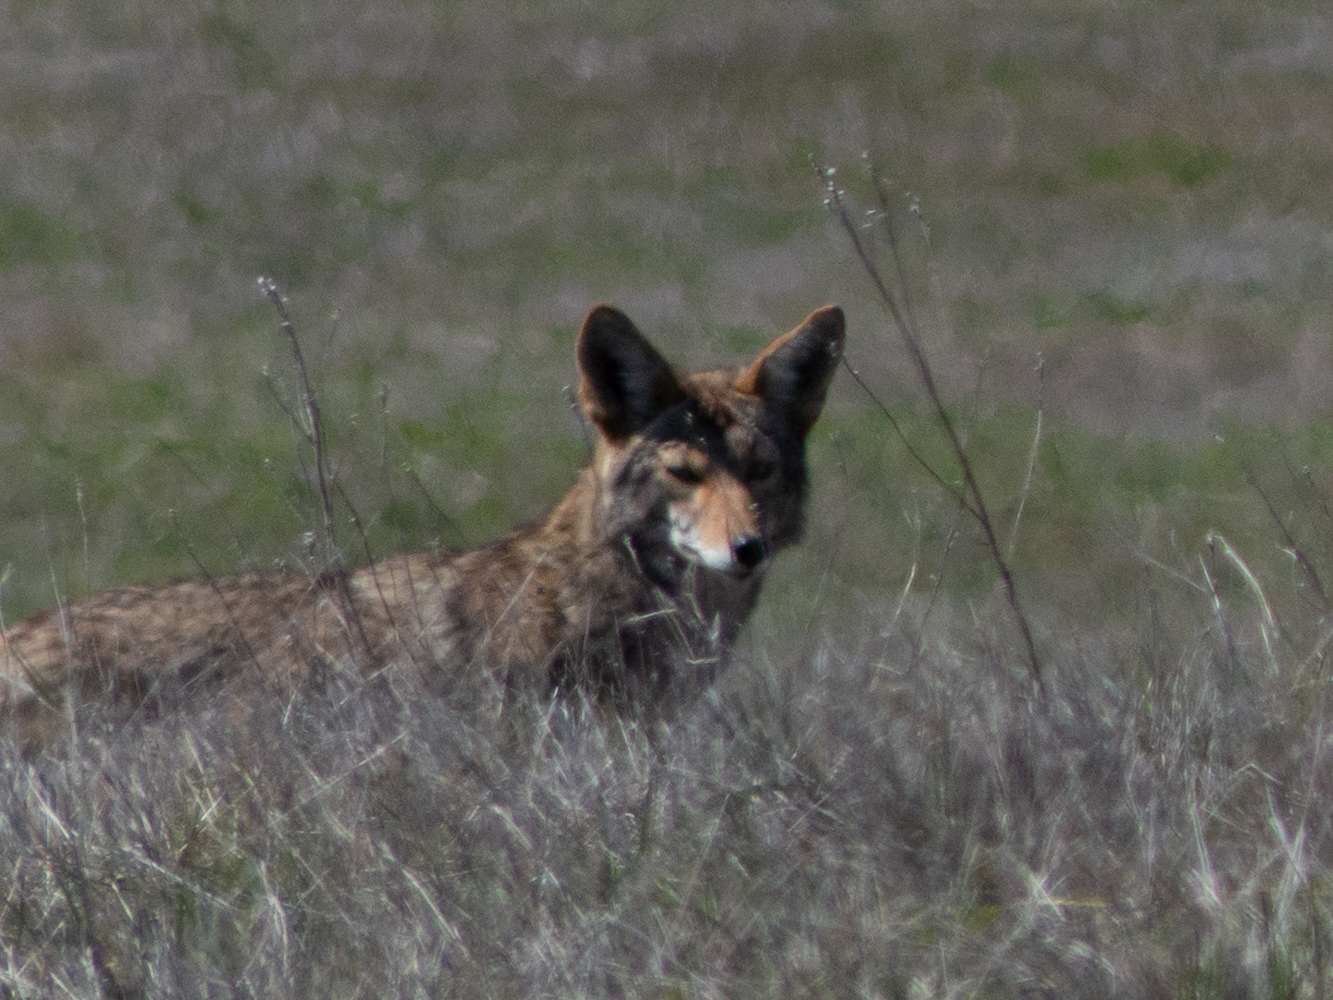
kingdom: Animalia
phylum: Chordata
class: Mammalia
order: Carnivora
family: Canidae
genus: Canis
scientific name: Canis latrans
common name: Coyote
